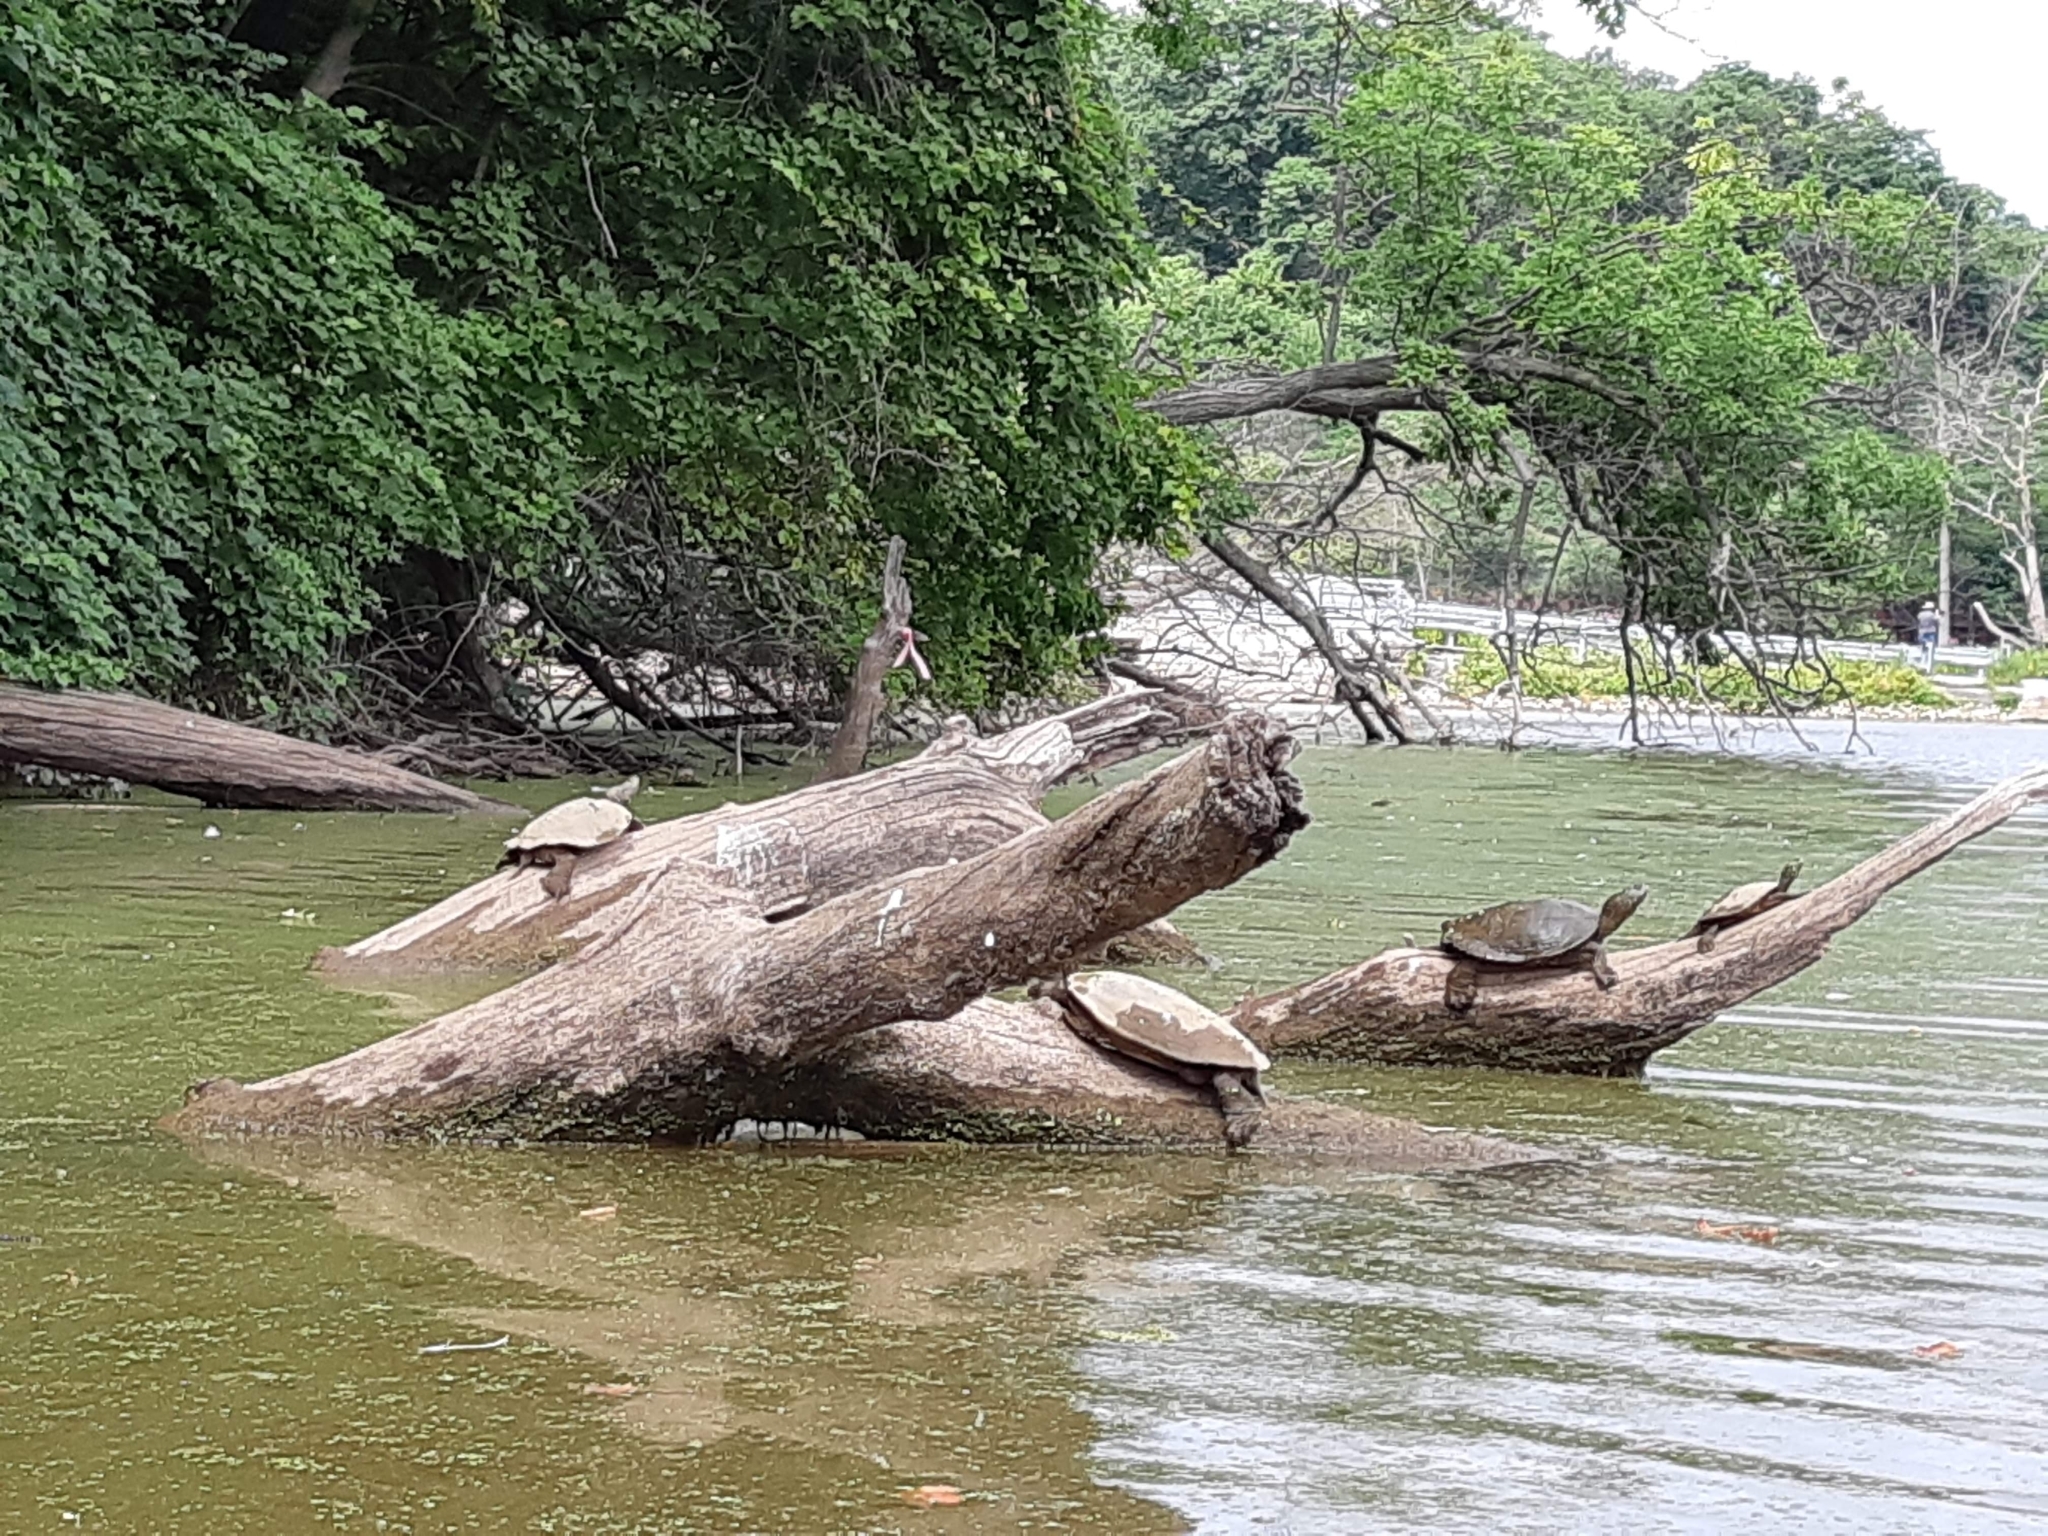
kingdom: Animalia
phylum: Chordata
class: Testudines
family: Emydidae
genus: Graptemys
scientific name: Graptemys geographica
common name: Common map turtle
